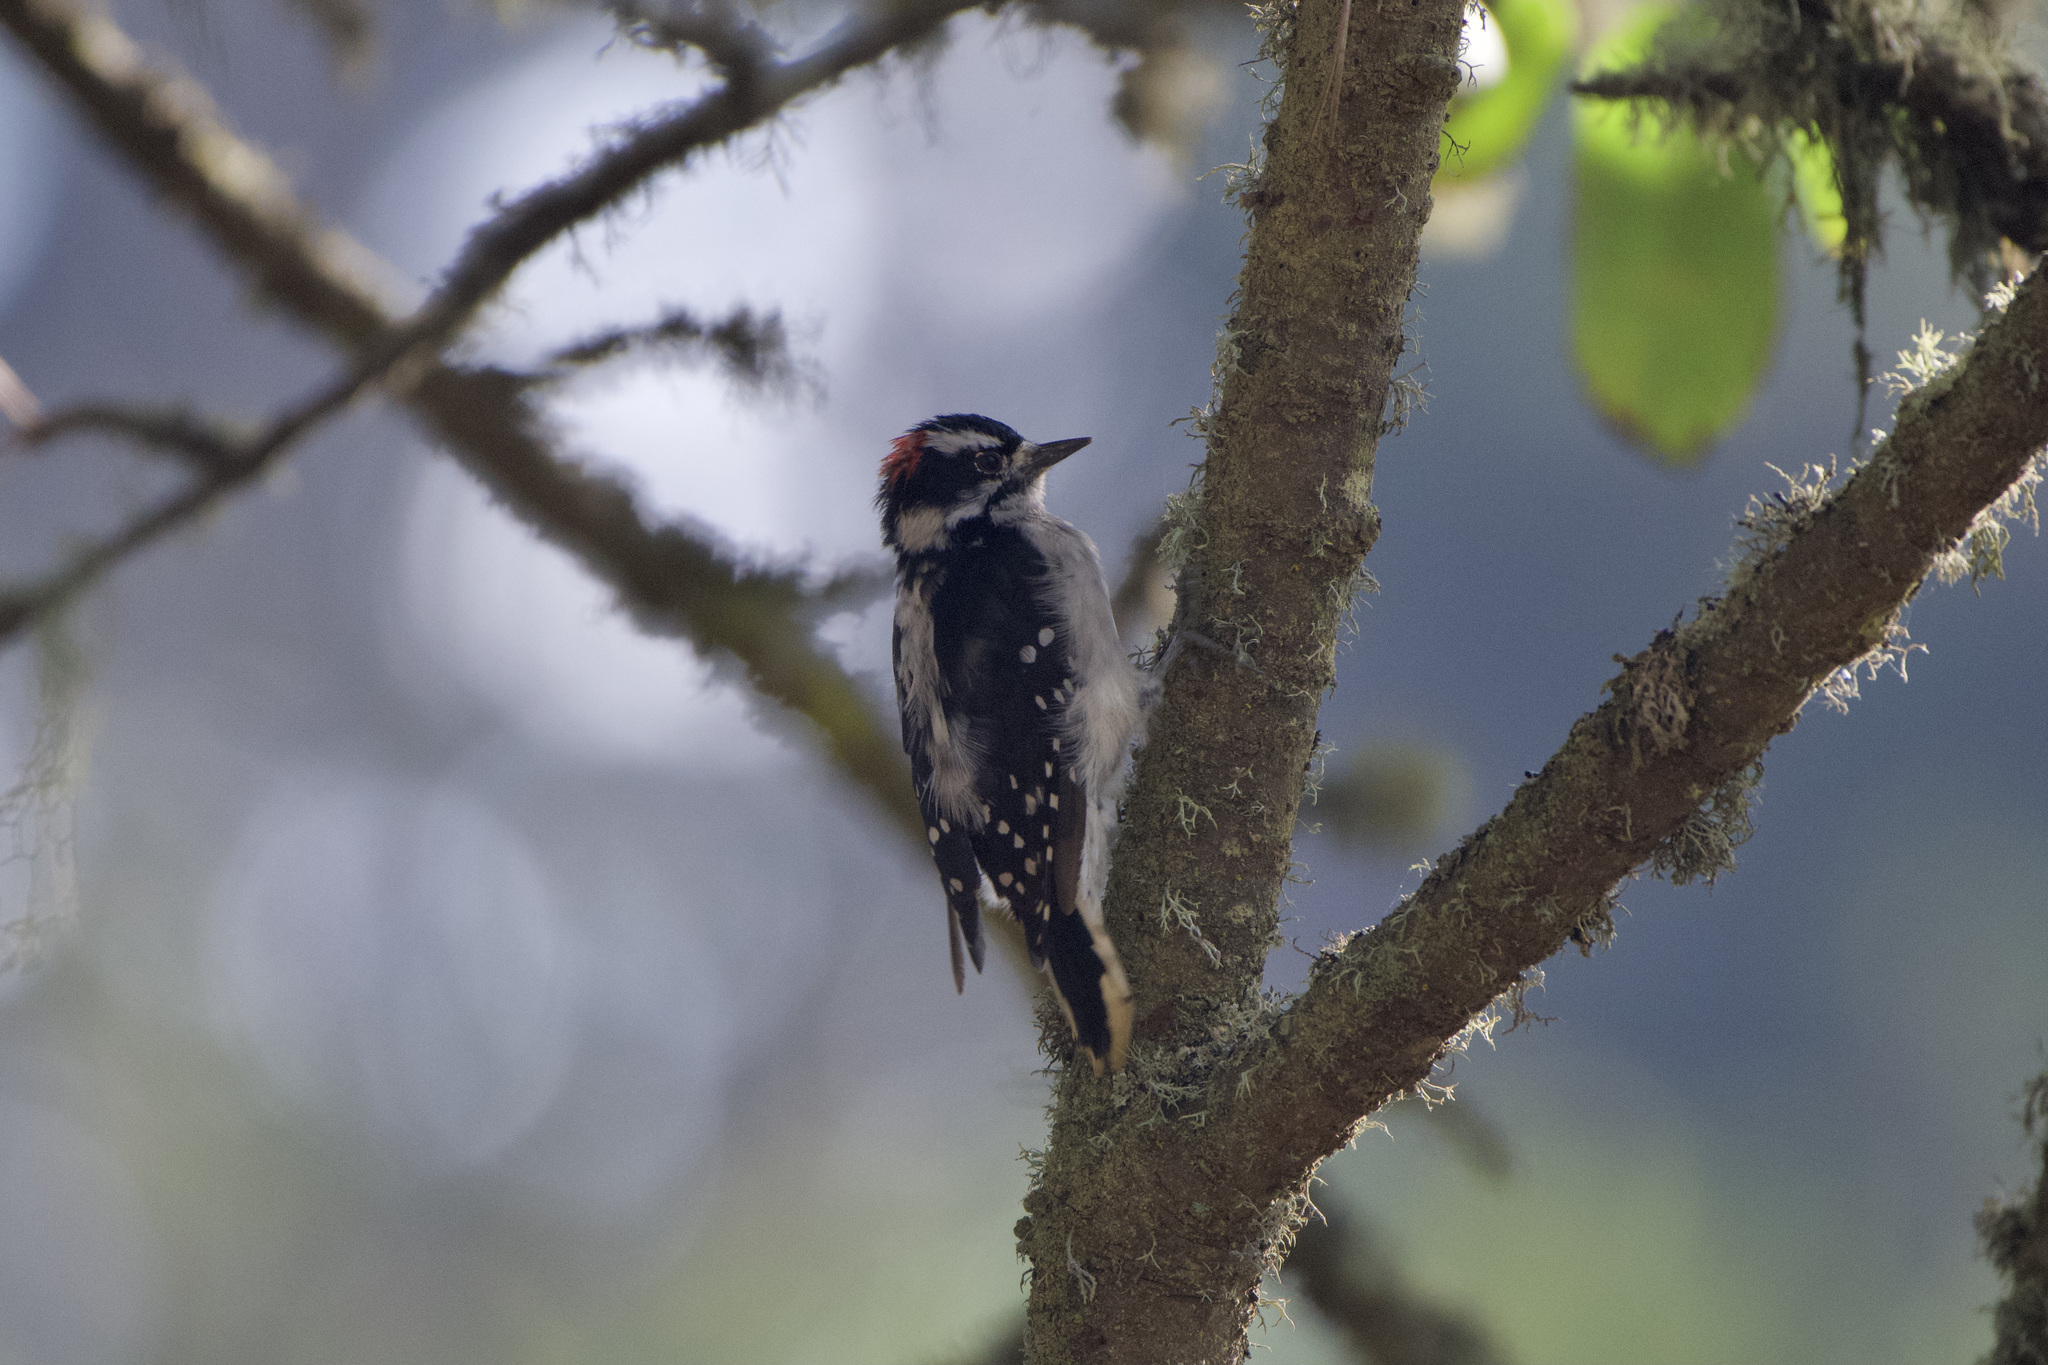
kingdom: Animalia
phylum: Chordata
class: Aves
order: Piciformes
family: Picidae
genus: Dryobates
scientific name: Dryobates pubescens
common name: Downy woodpecker
